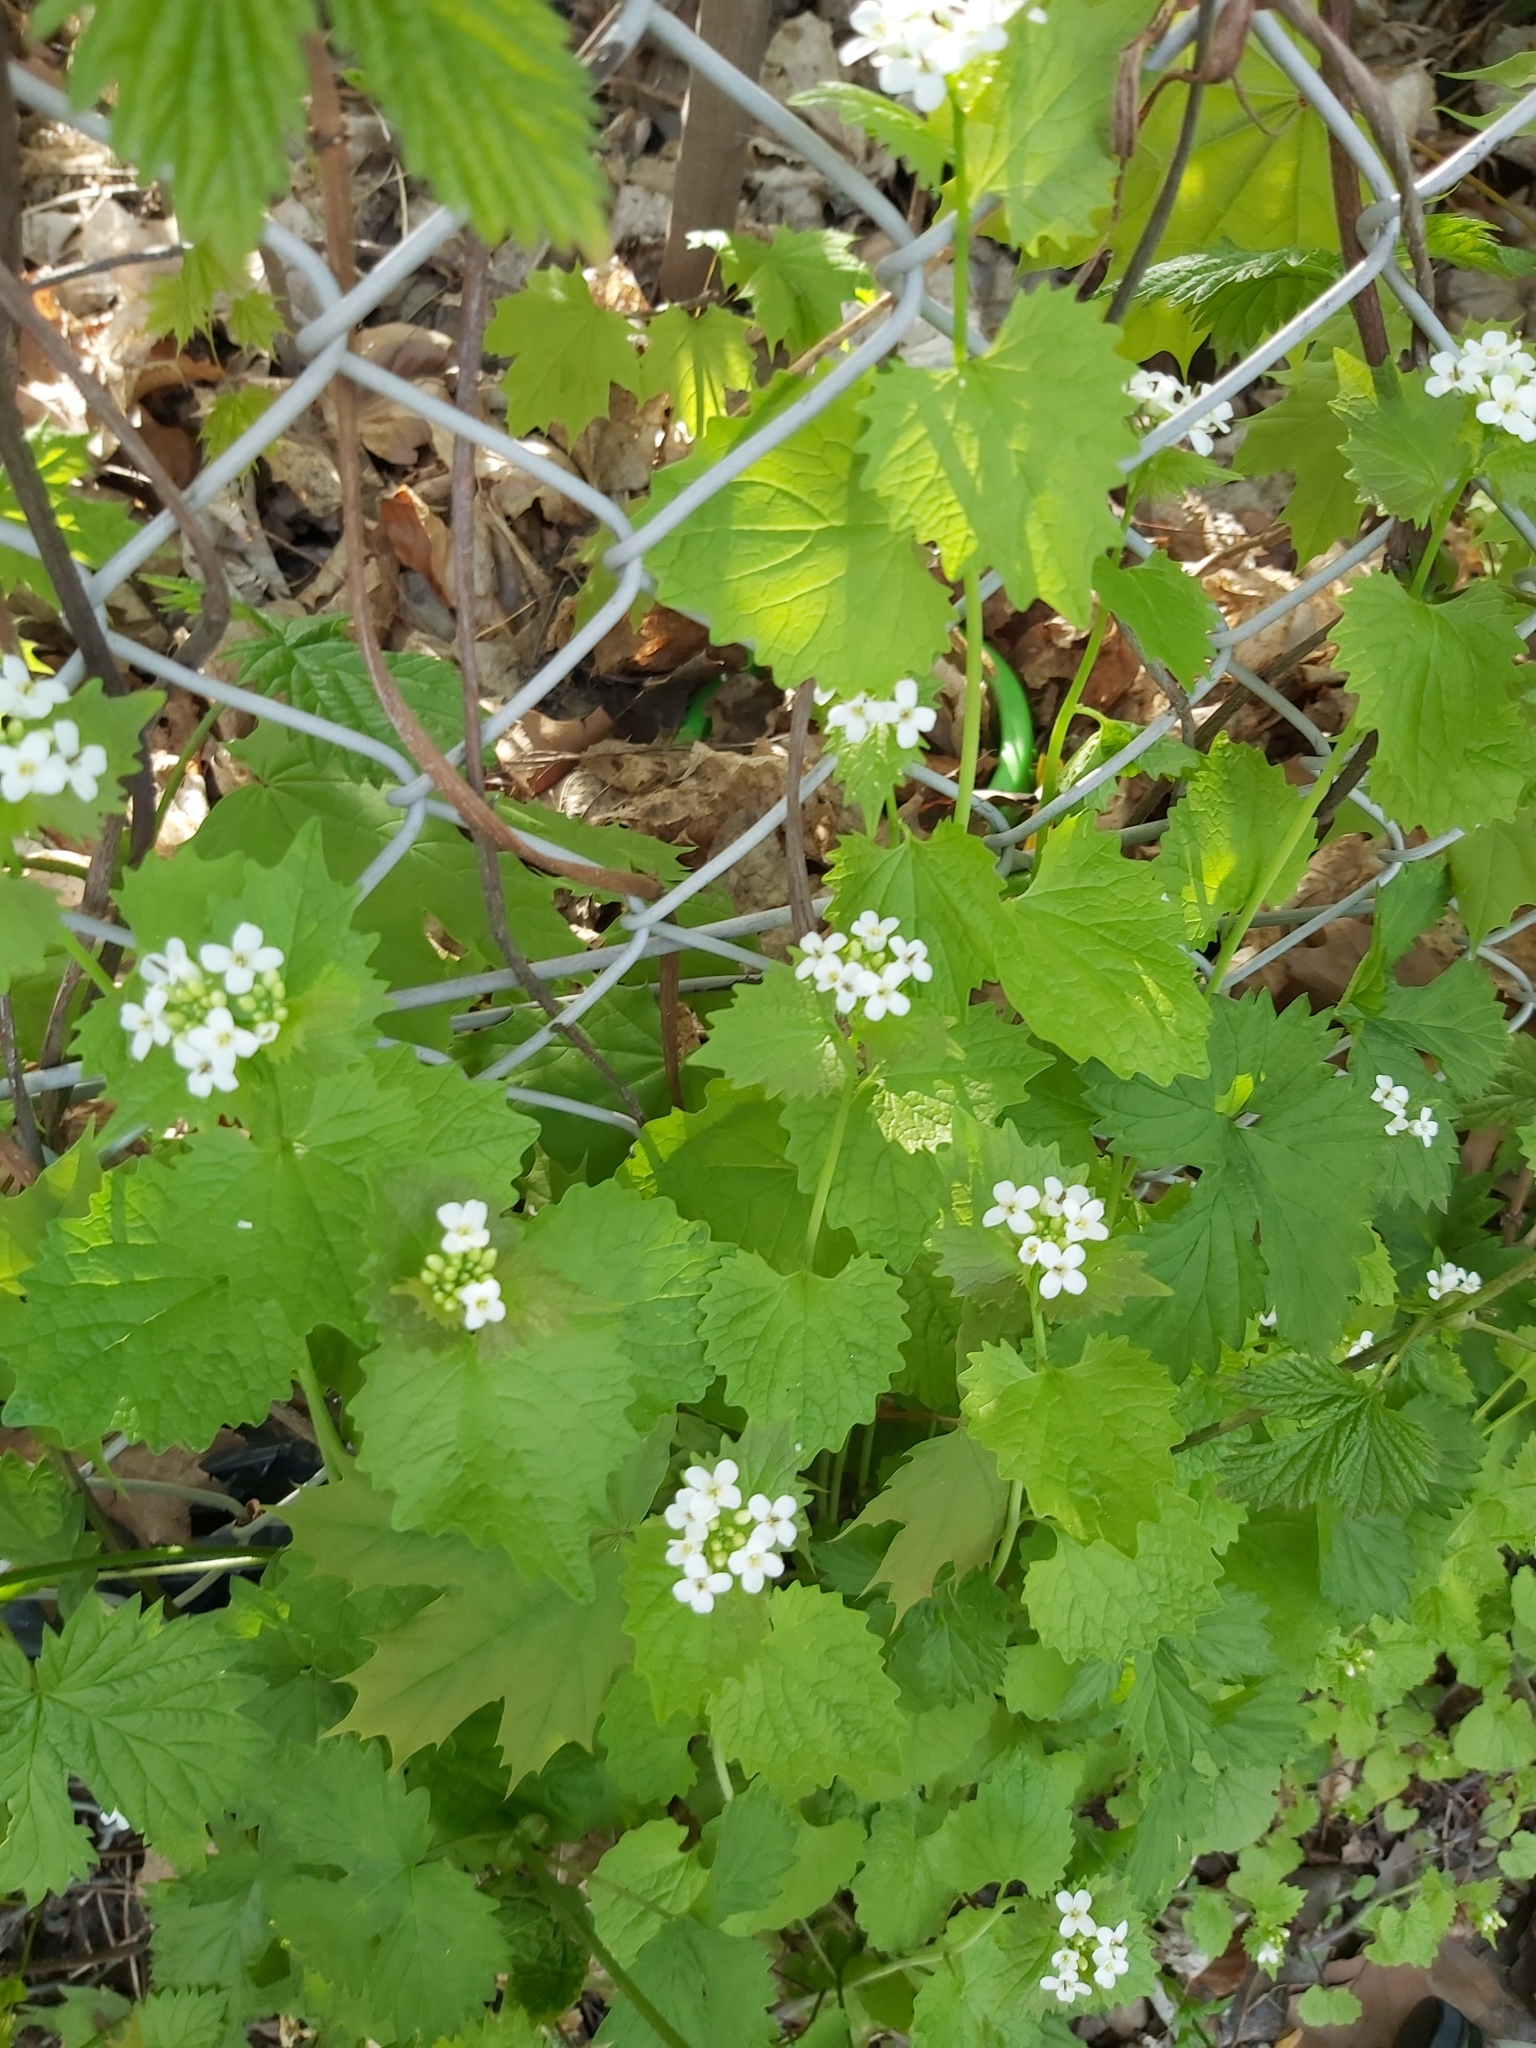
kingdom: Plantae
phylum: Tracheophyta
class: Magnoliopsida
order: Brassicales
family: Brassicaceae
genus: Alliaria
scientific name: Alliaria petiolata
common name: Garlic mustard
